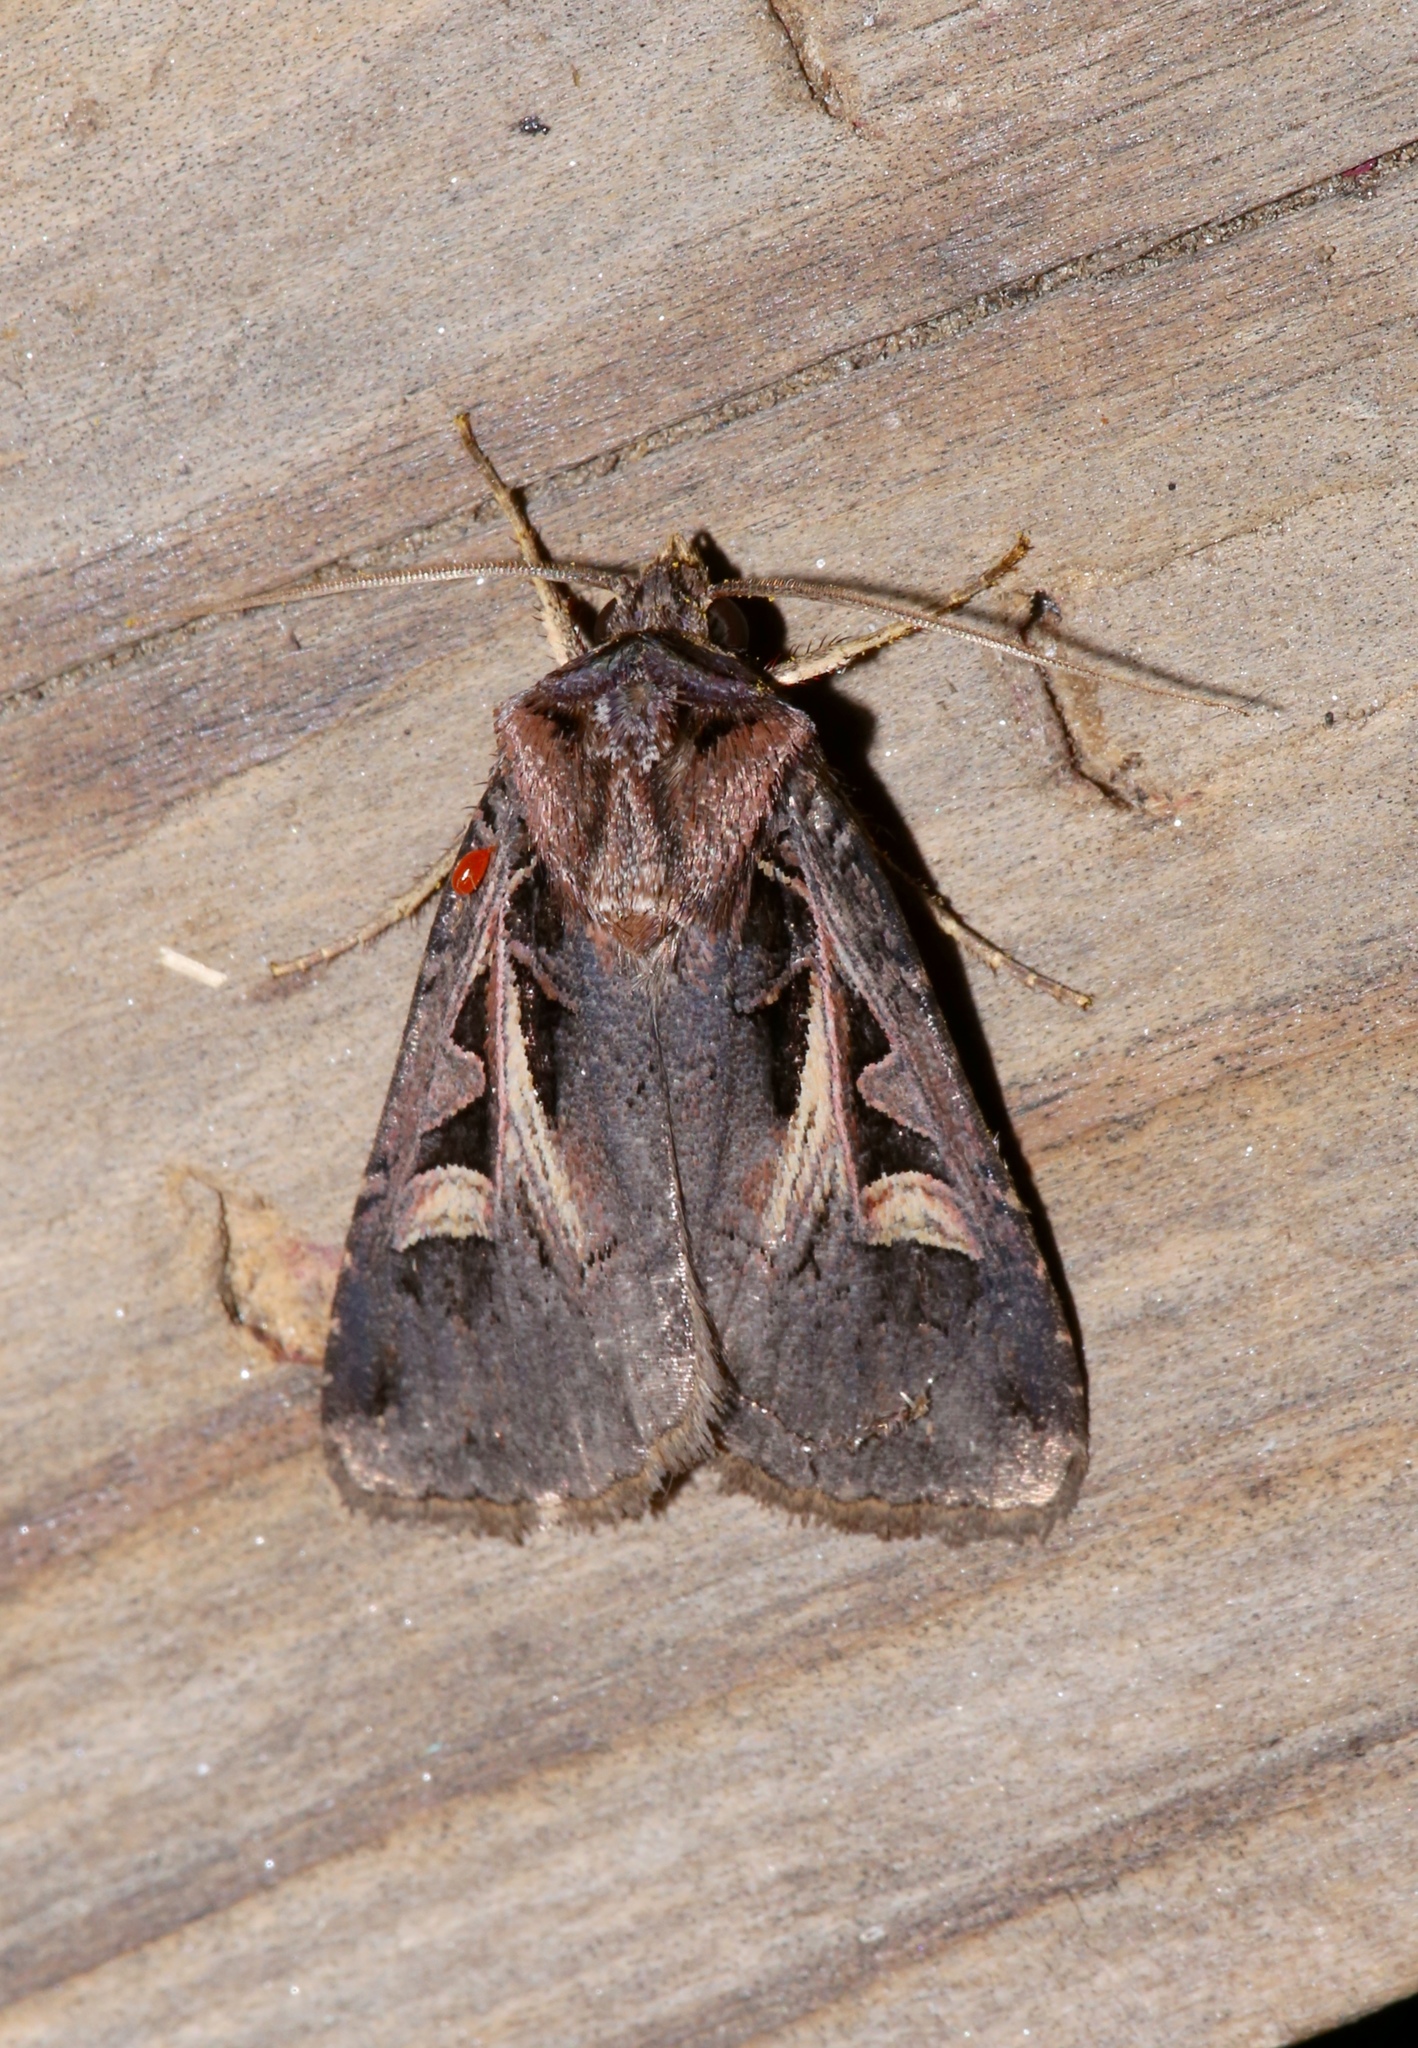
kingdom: Animalia
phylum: Arthropoda
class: Insecta
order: Lepidoptera
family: Noctuidae
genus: Feltia
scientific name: Feltia herilis
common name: Master's dart
